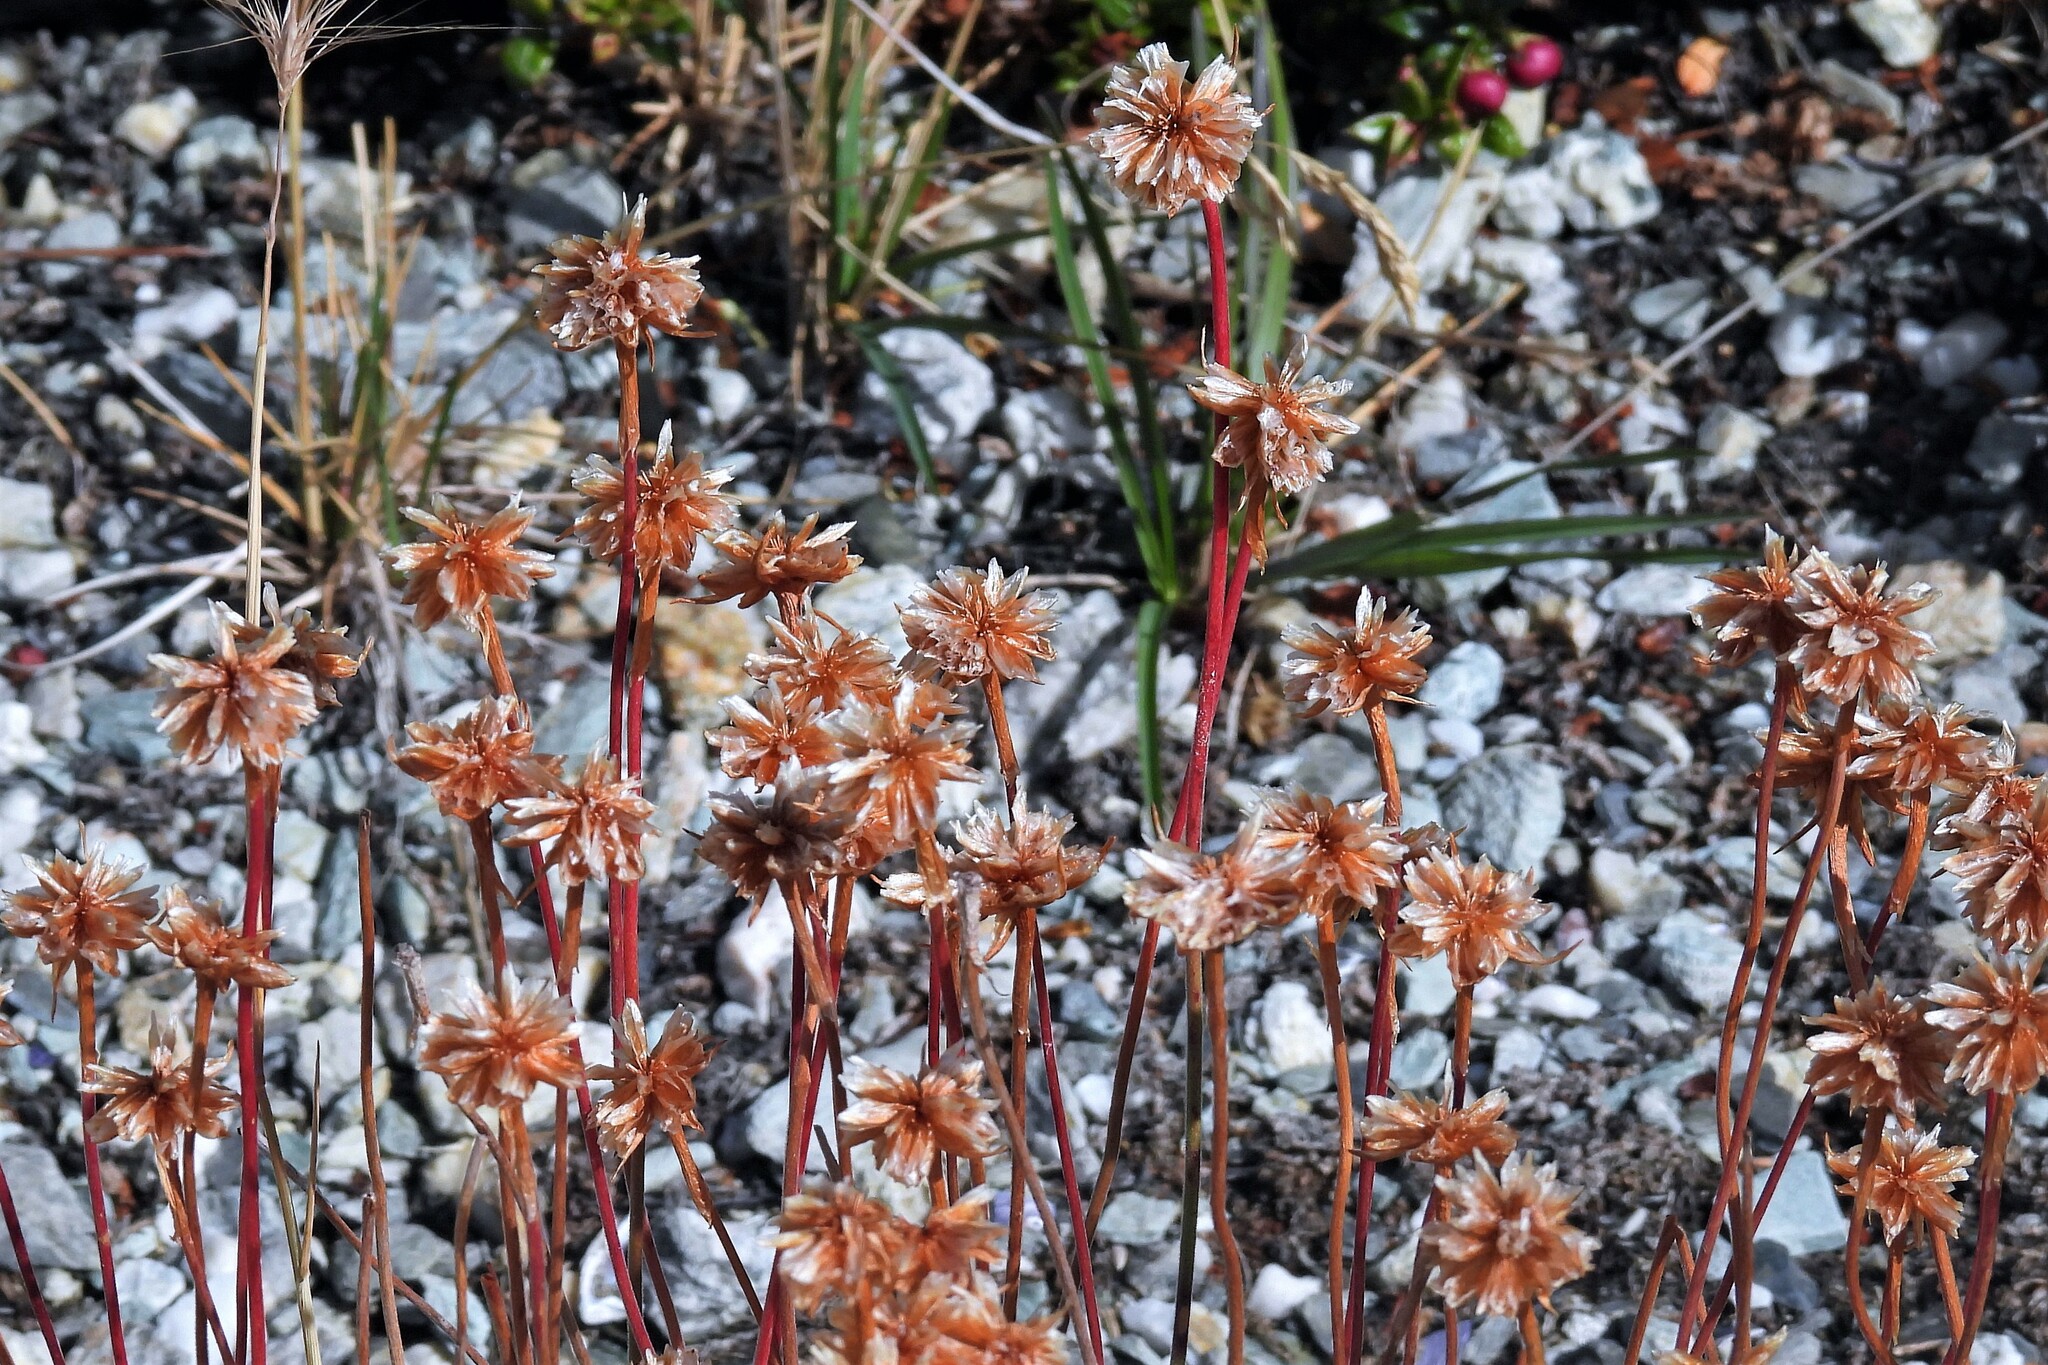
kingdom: Plantae
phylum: Tracheophyta
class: Magnoliopsida
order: Caryophyllales
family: Plumbaginaceae
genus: Armeria
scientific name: Armeria curvifolia
